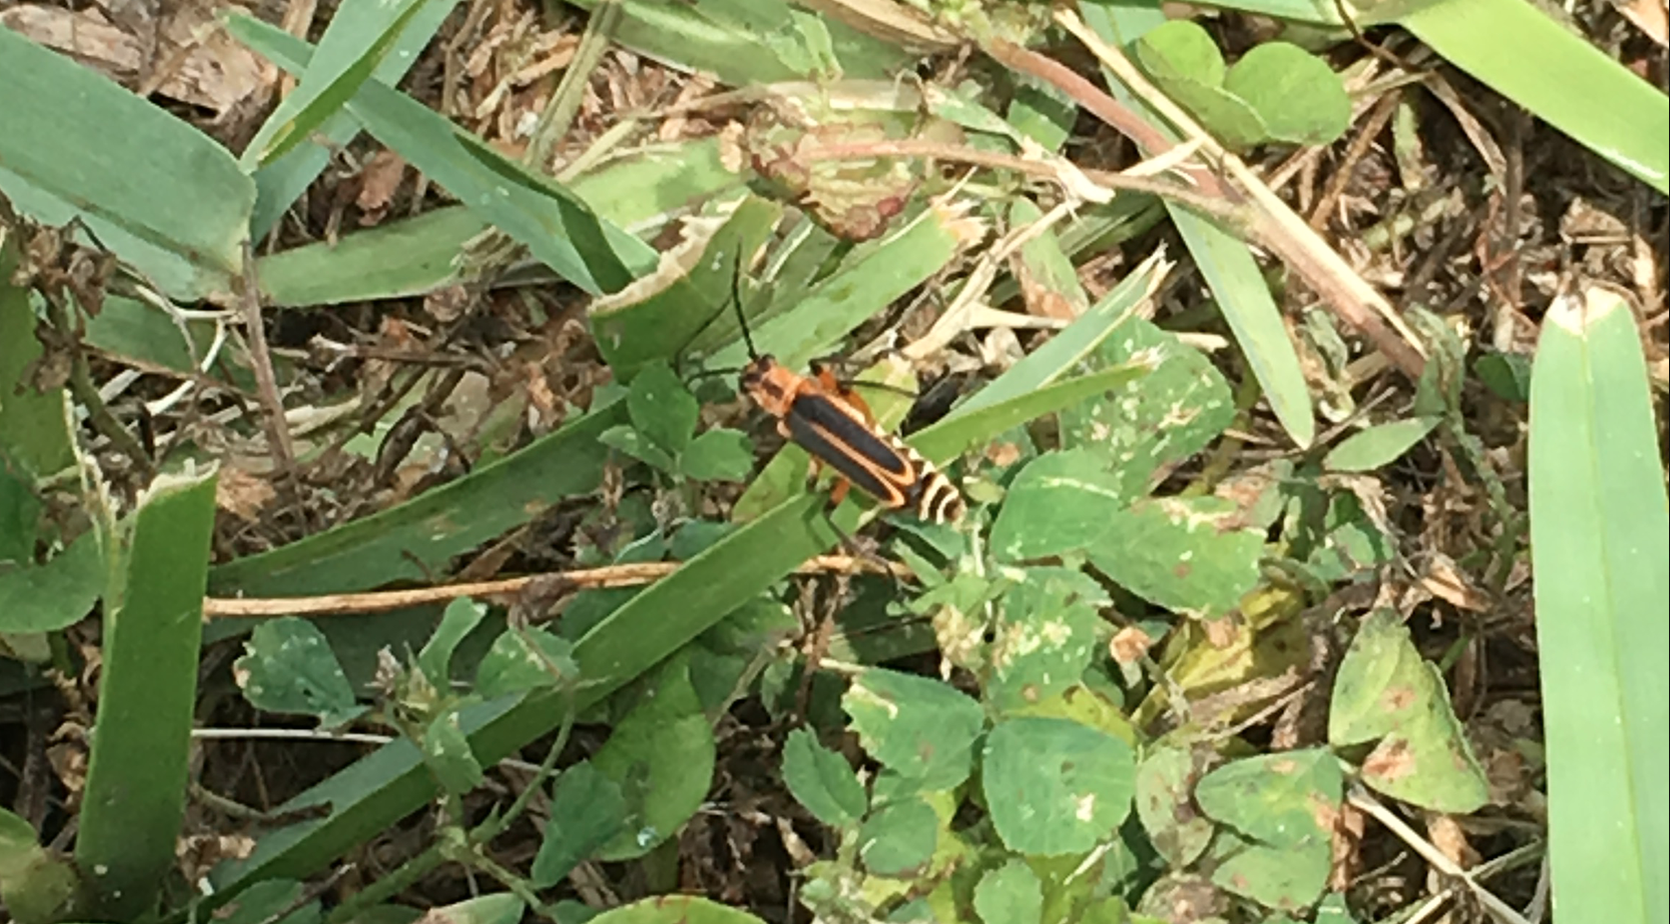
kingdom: Animalia
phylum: Arthropoda
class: Insecta
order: Coleoptera
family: Cantharidae
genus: Chauliognathus
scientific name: Chauliognathus marginatus
